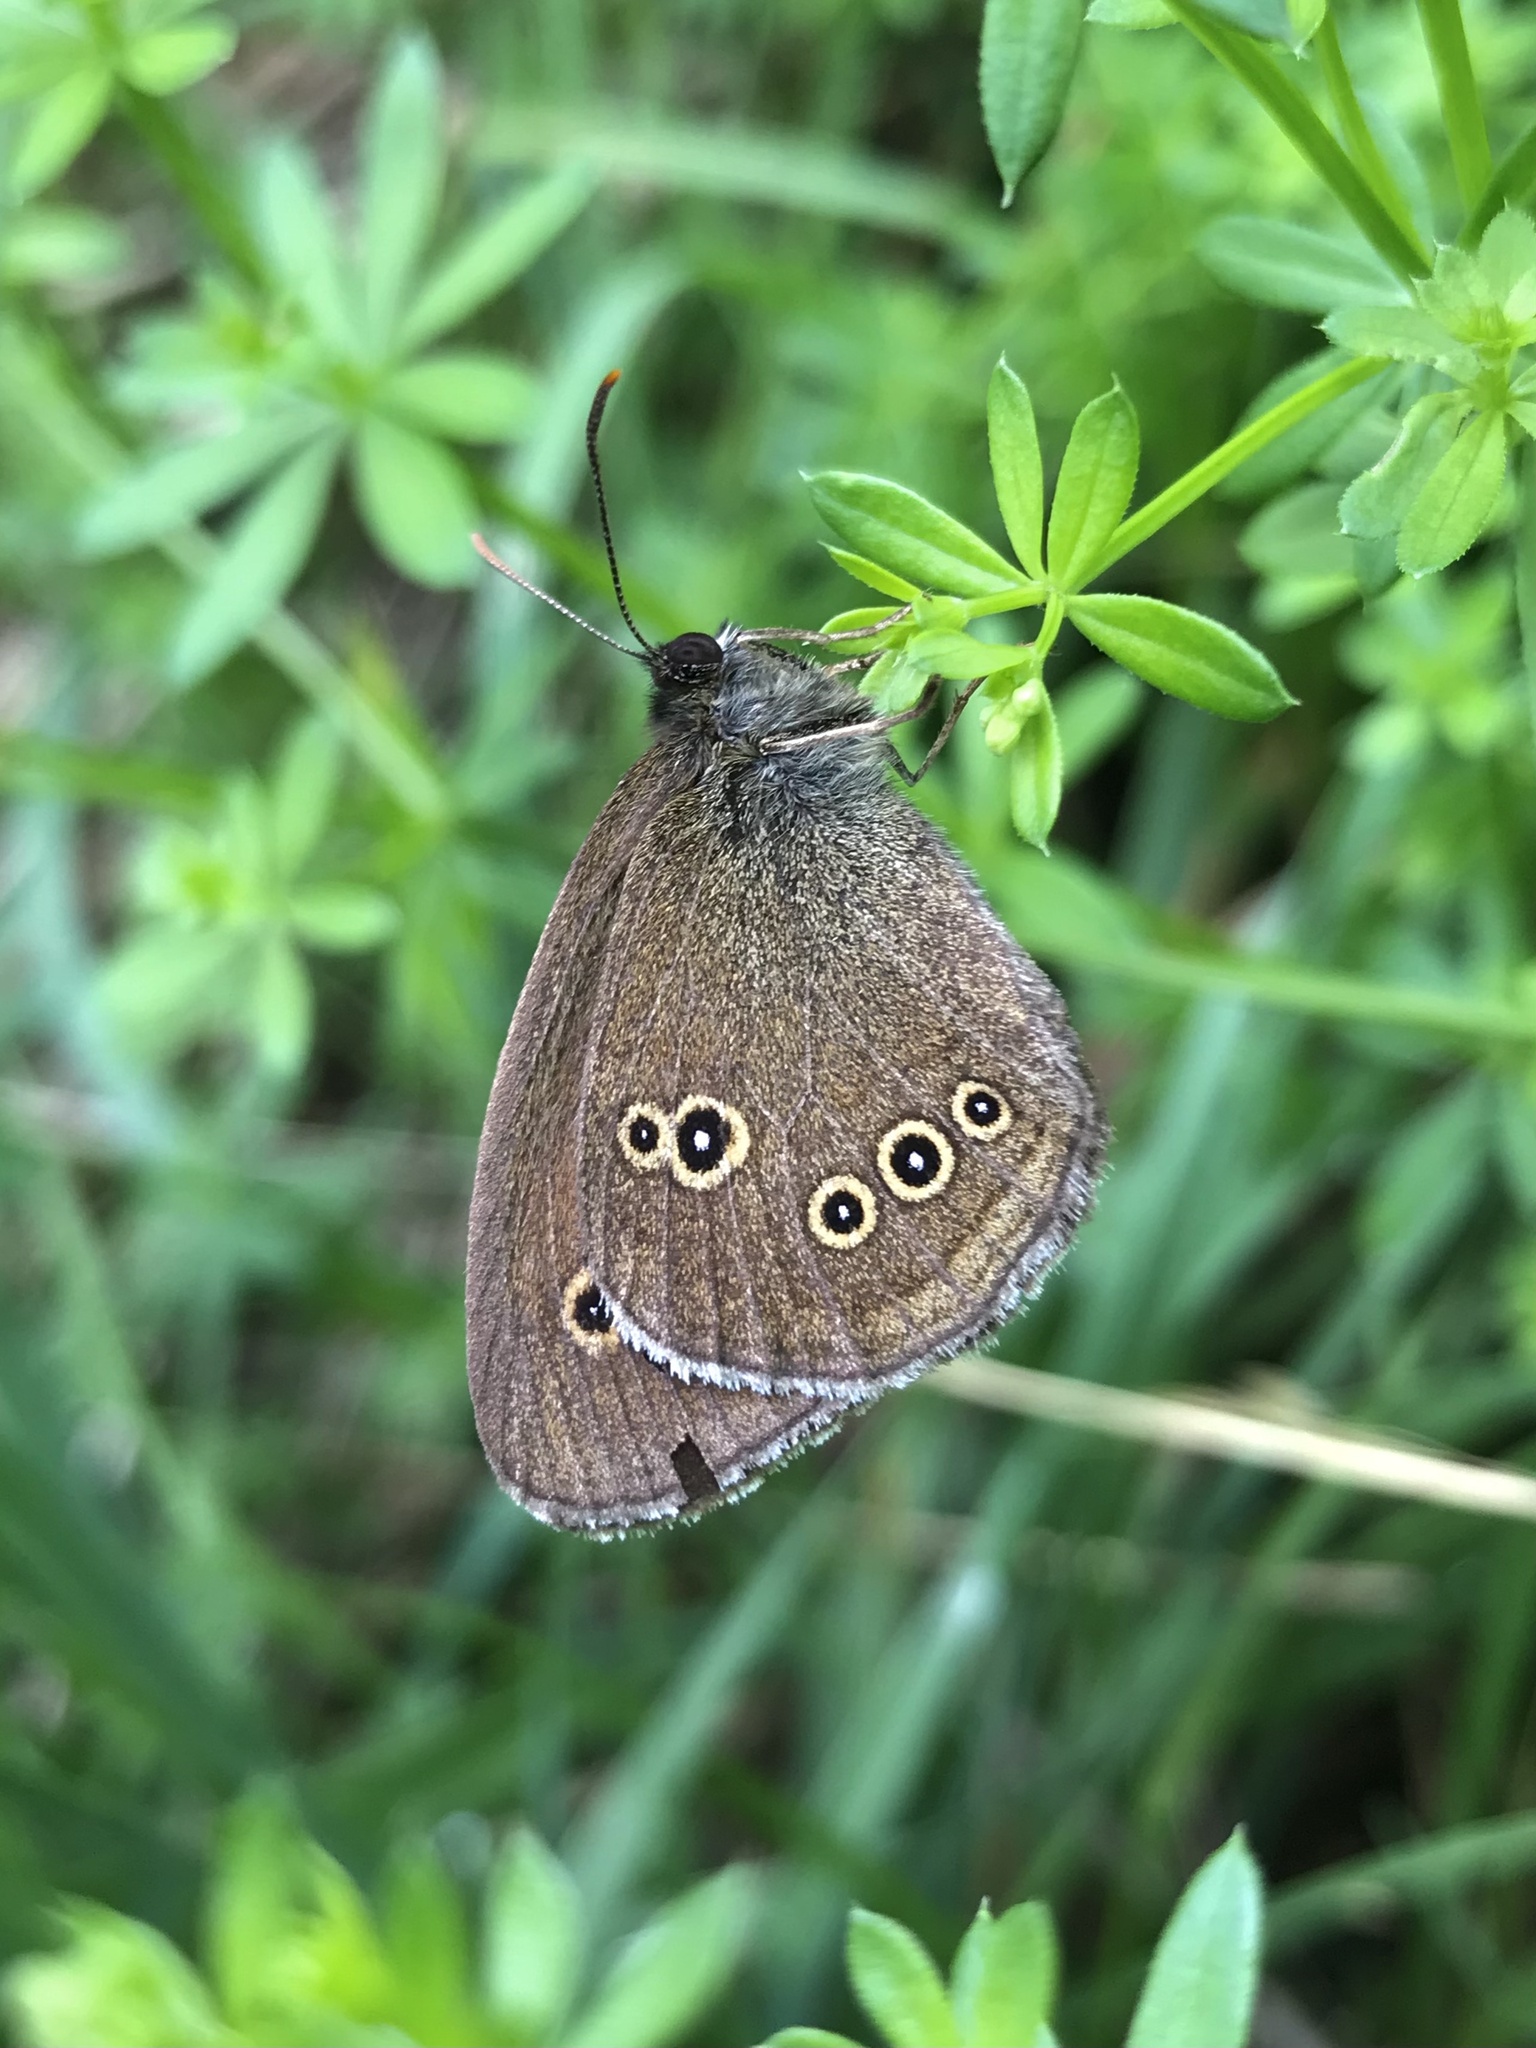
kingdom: Animalia
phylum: Arthropoda
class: Insecta
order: Lepidoptera
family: Nymphalidae
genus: Aphantopus
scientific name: Aphantopus hyperantus
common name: Ringlet
